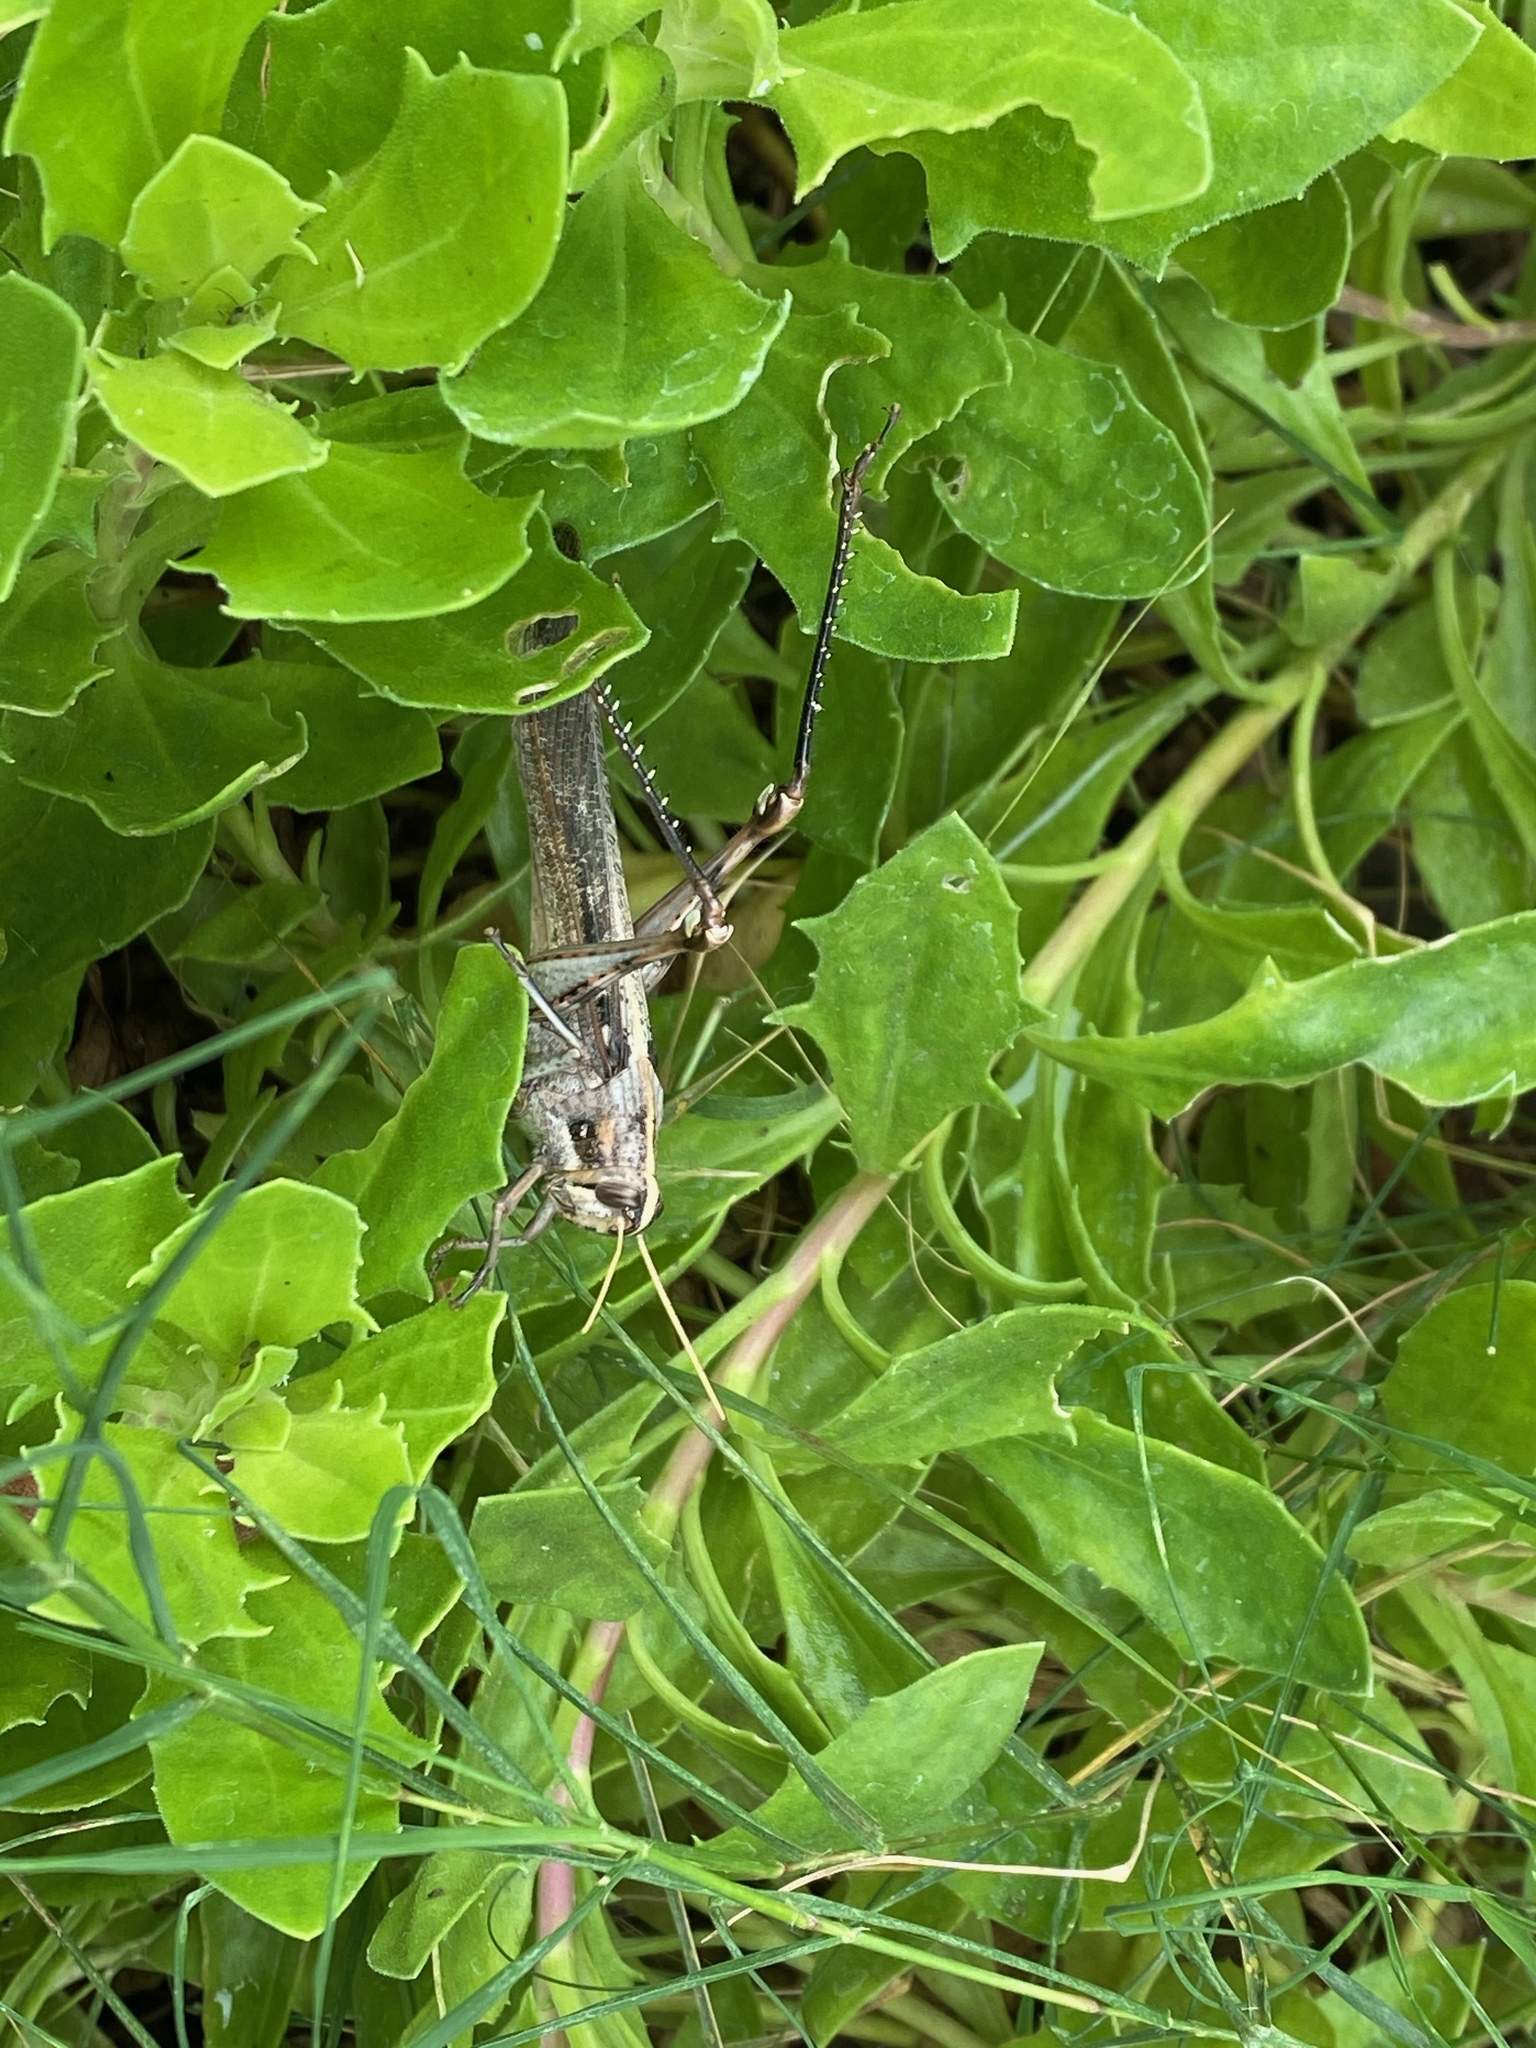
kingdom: Animalia
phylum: Arthropoda
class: Insecta
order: Orthoptera
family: Acrididae
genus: Schistocerca
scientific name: Schistocerca nitens
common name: Vagrant grasshopper
